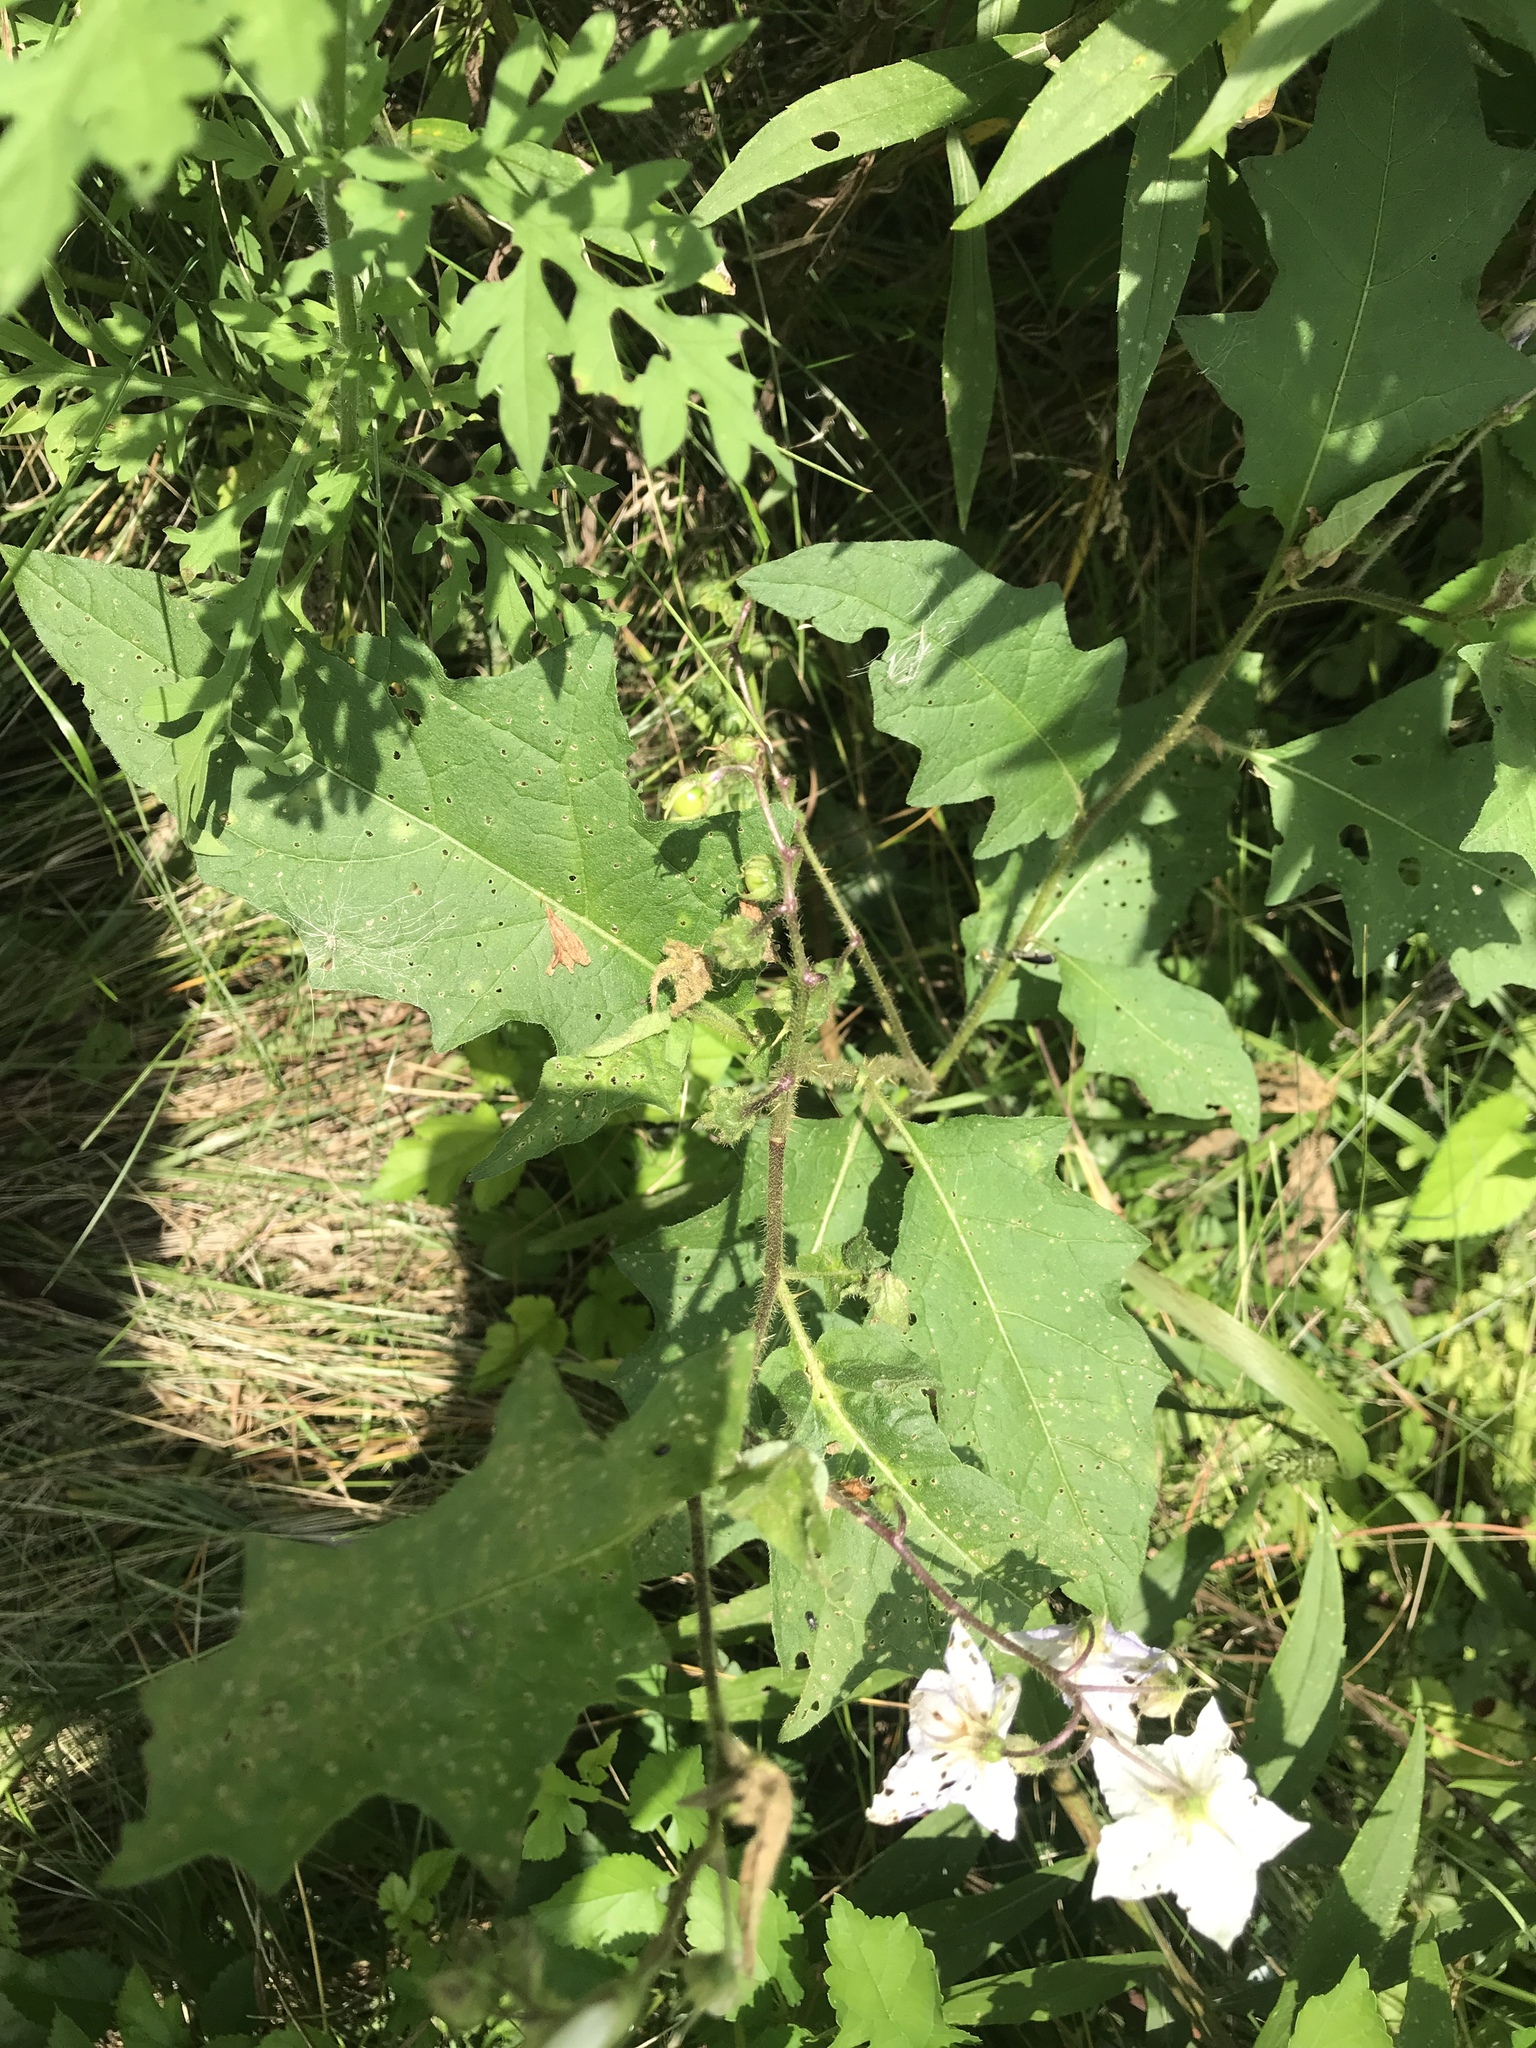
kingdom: Plantae
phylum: Tracheophyta
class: Magnoliopsida
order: Solanales
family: Solanaceae
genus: Solanum
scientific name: Solanum carolinense
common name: Horse-nettle
